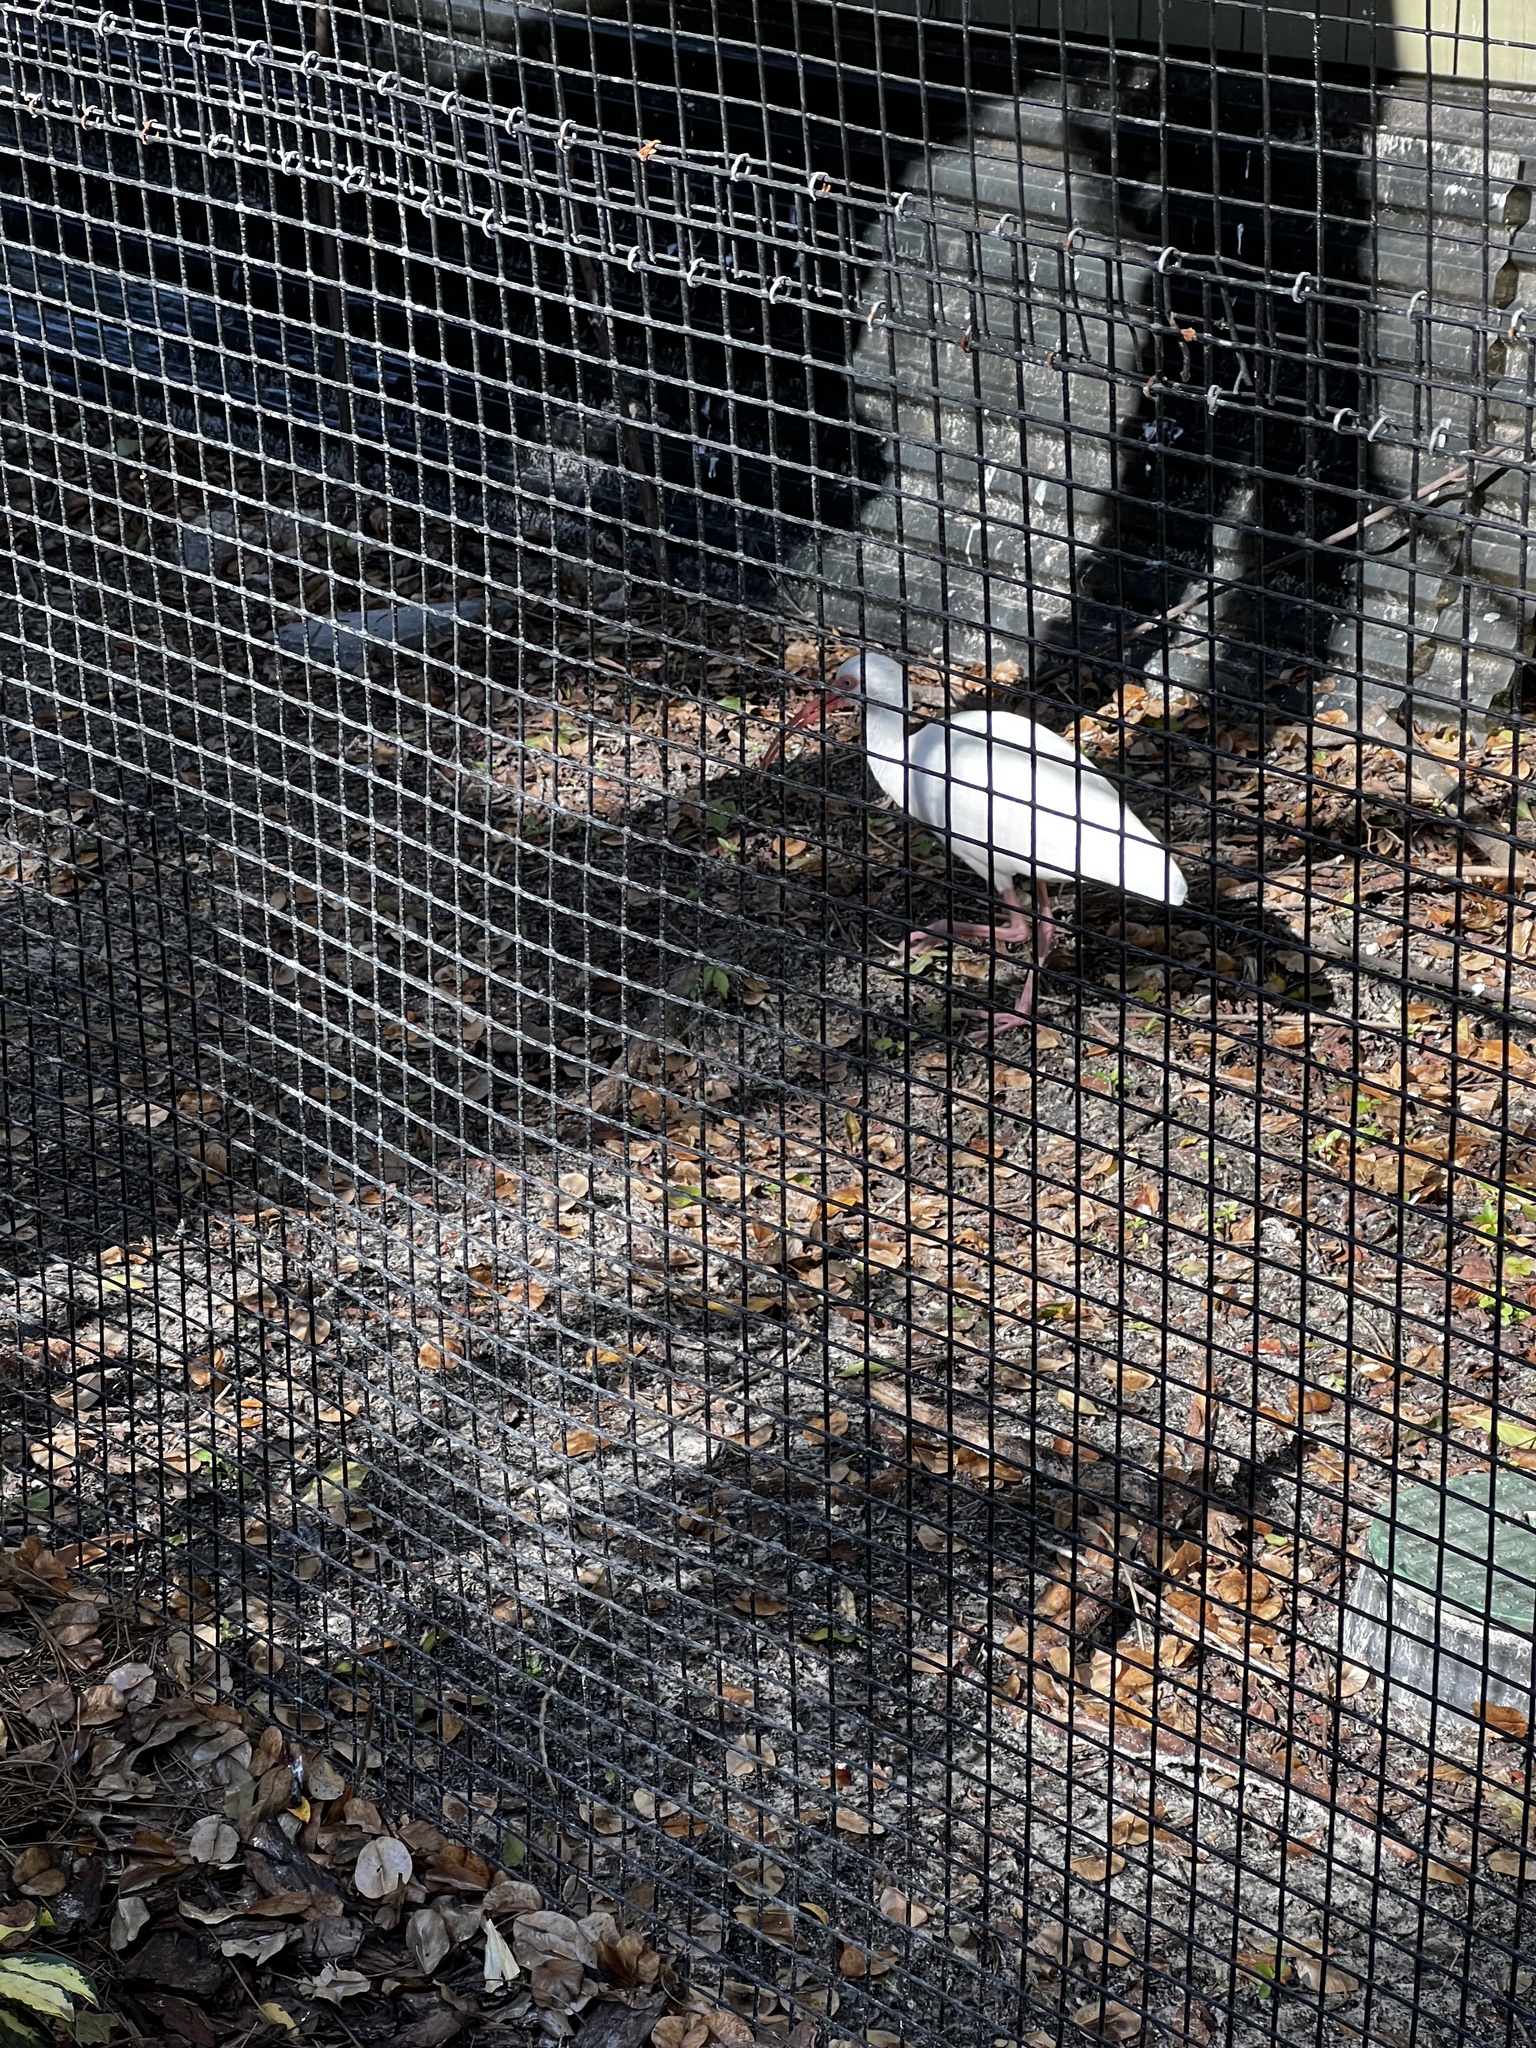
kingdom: Animalia
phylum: Chordata
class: Aves
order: Pelecaniformes
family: Threskiornithidae
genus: Eudocimus
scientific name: Eudocimus albus
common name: White ibis
